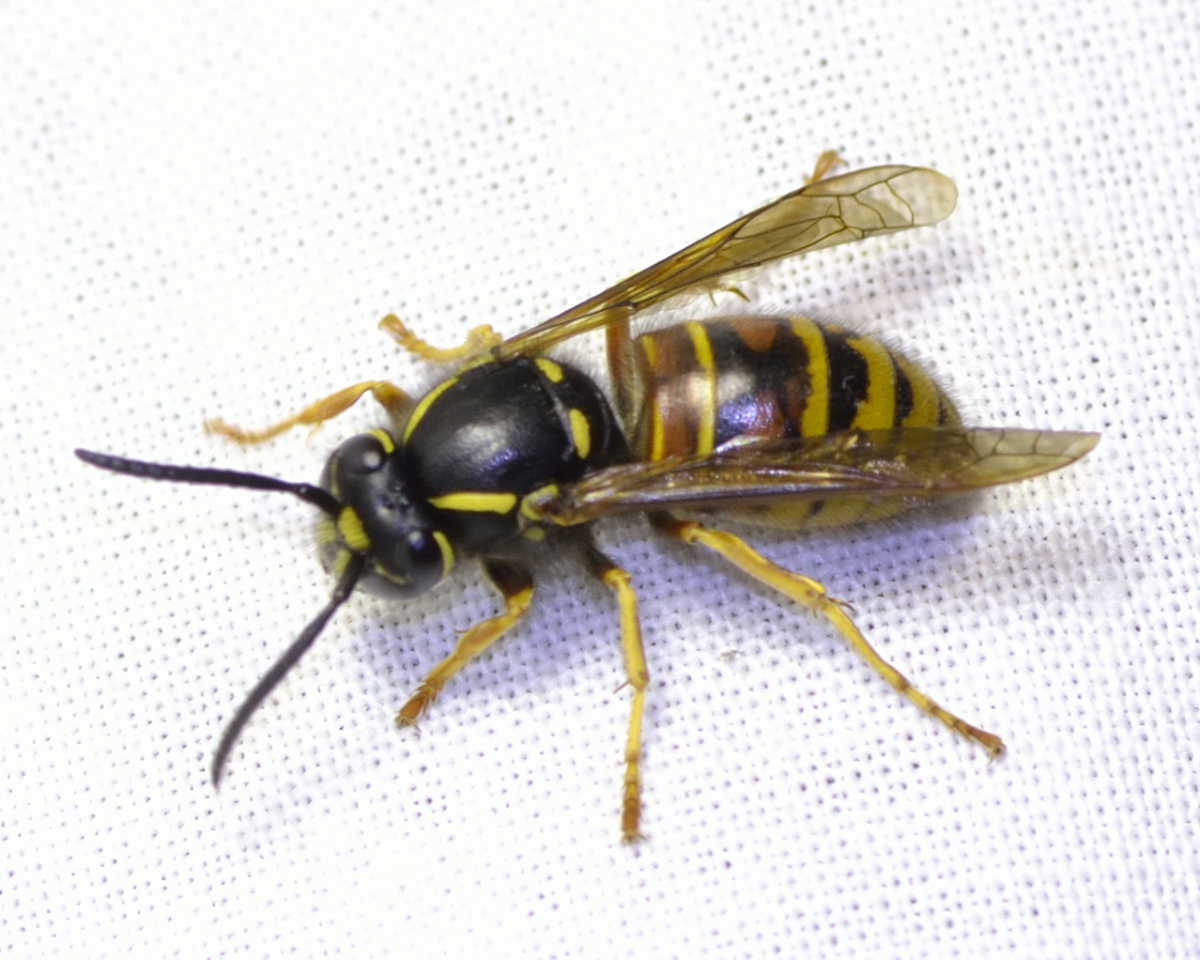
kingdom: Animalia
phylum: Arthropoda
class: Insecta
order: Hymenoptera
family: Vespidae
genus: Vespula
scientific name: Vespula rufa
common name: Red wasp
